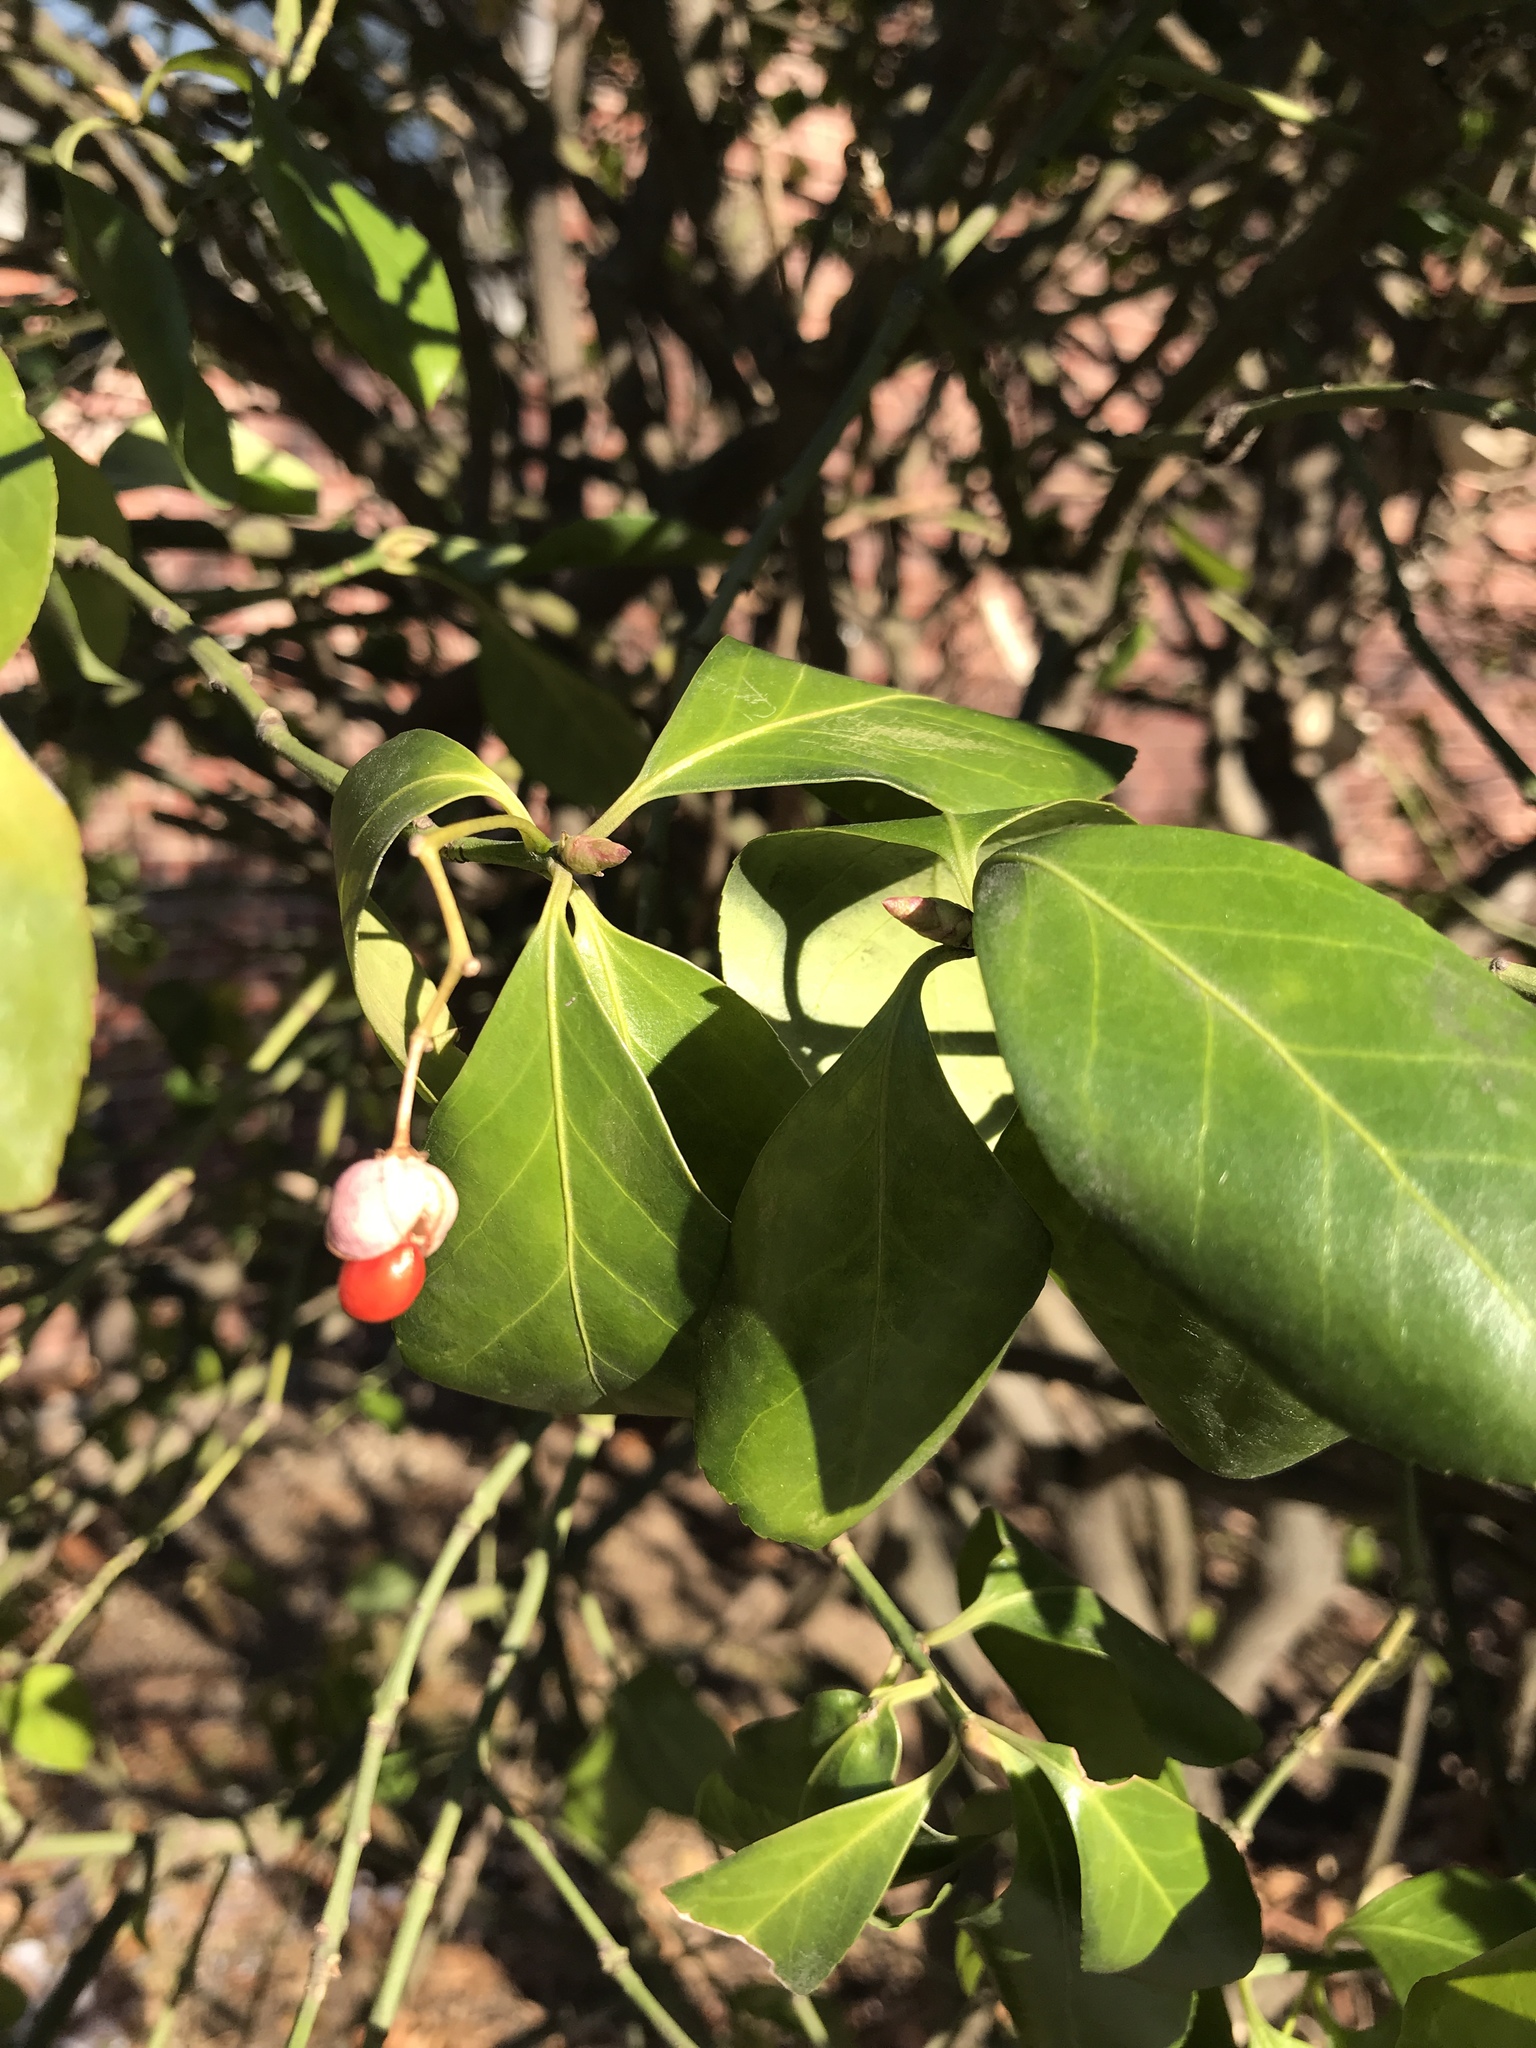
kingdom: Plantae
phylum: Tracheophyta
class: Magnoliopsida
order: Celastrales
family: Celastraceae
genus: Euonymus
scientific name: Euonymus fortunei
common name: Climbing euonymus
